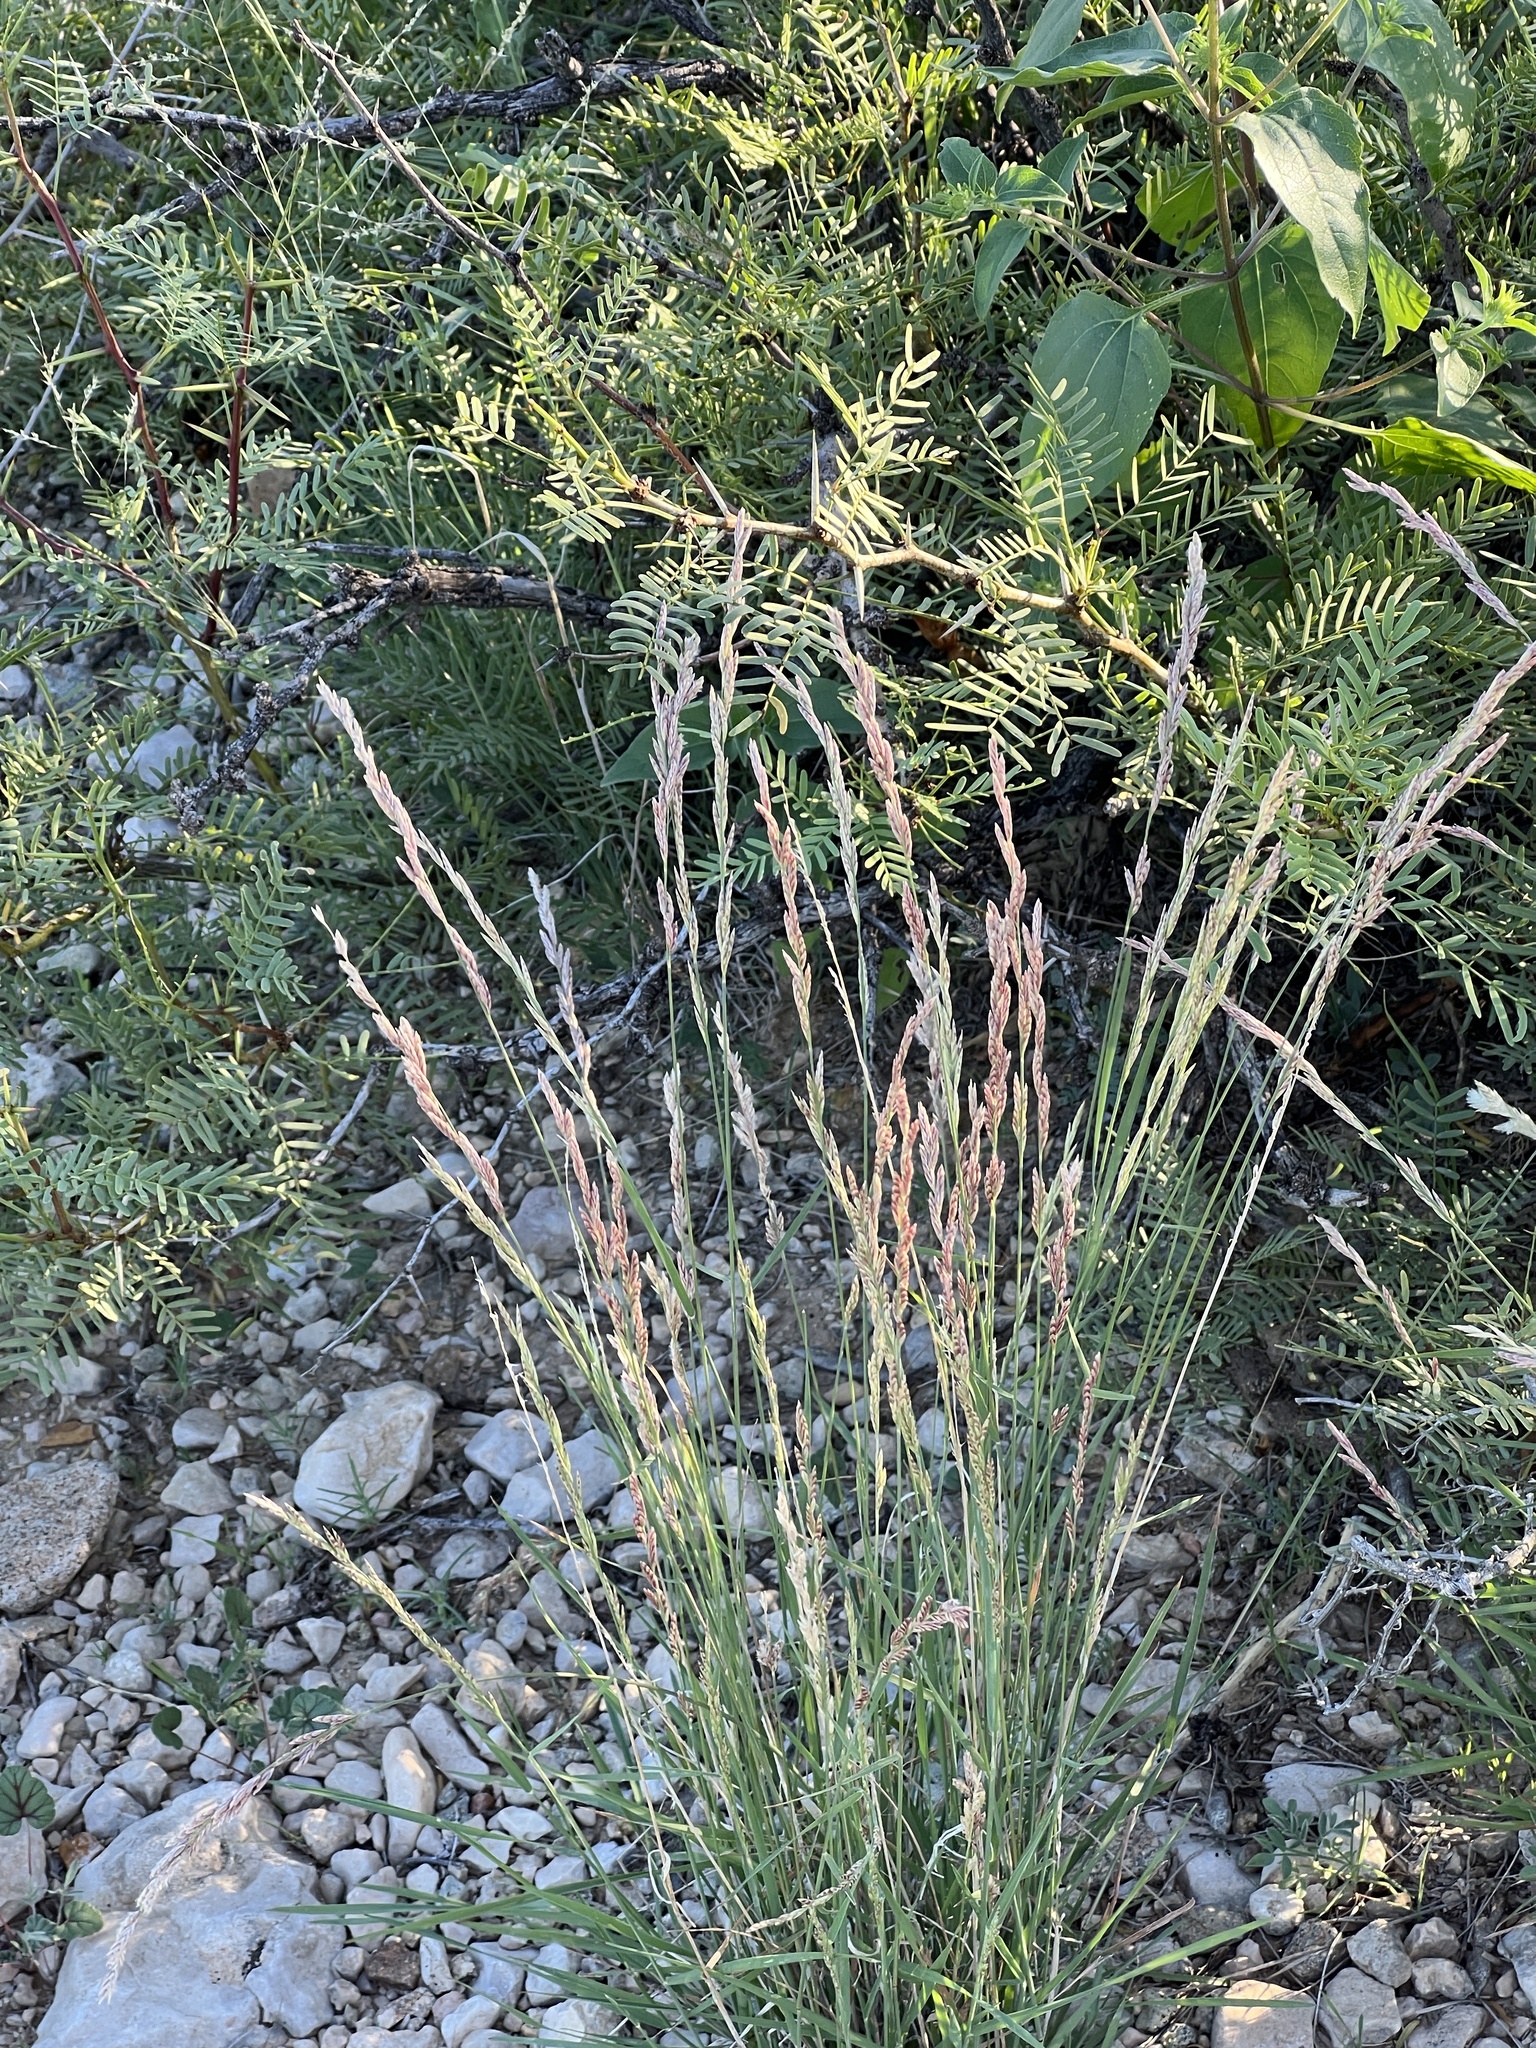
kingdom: Plantae
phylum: Tracheophyta
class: Liliopsida
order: Poales
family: Poaceae
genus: Tridentopsis
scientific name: Tridentopsis mutica
